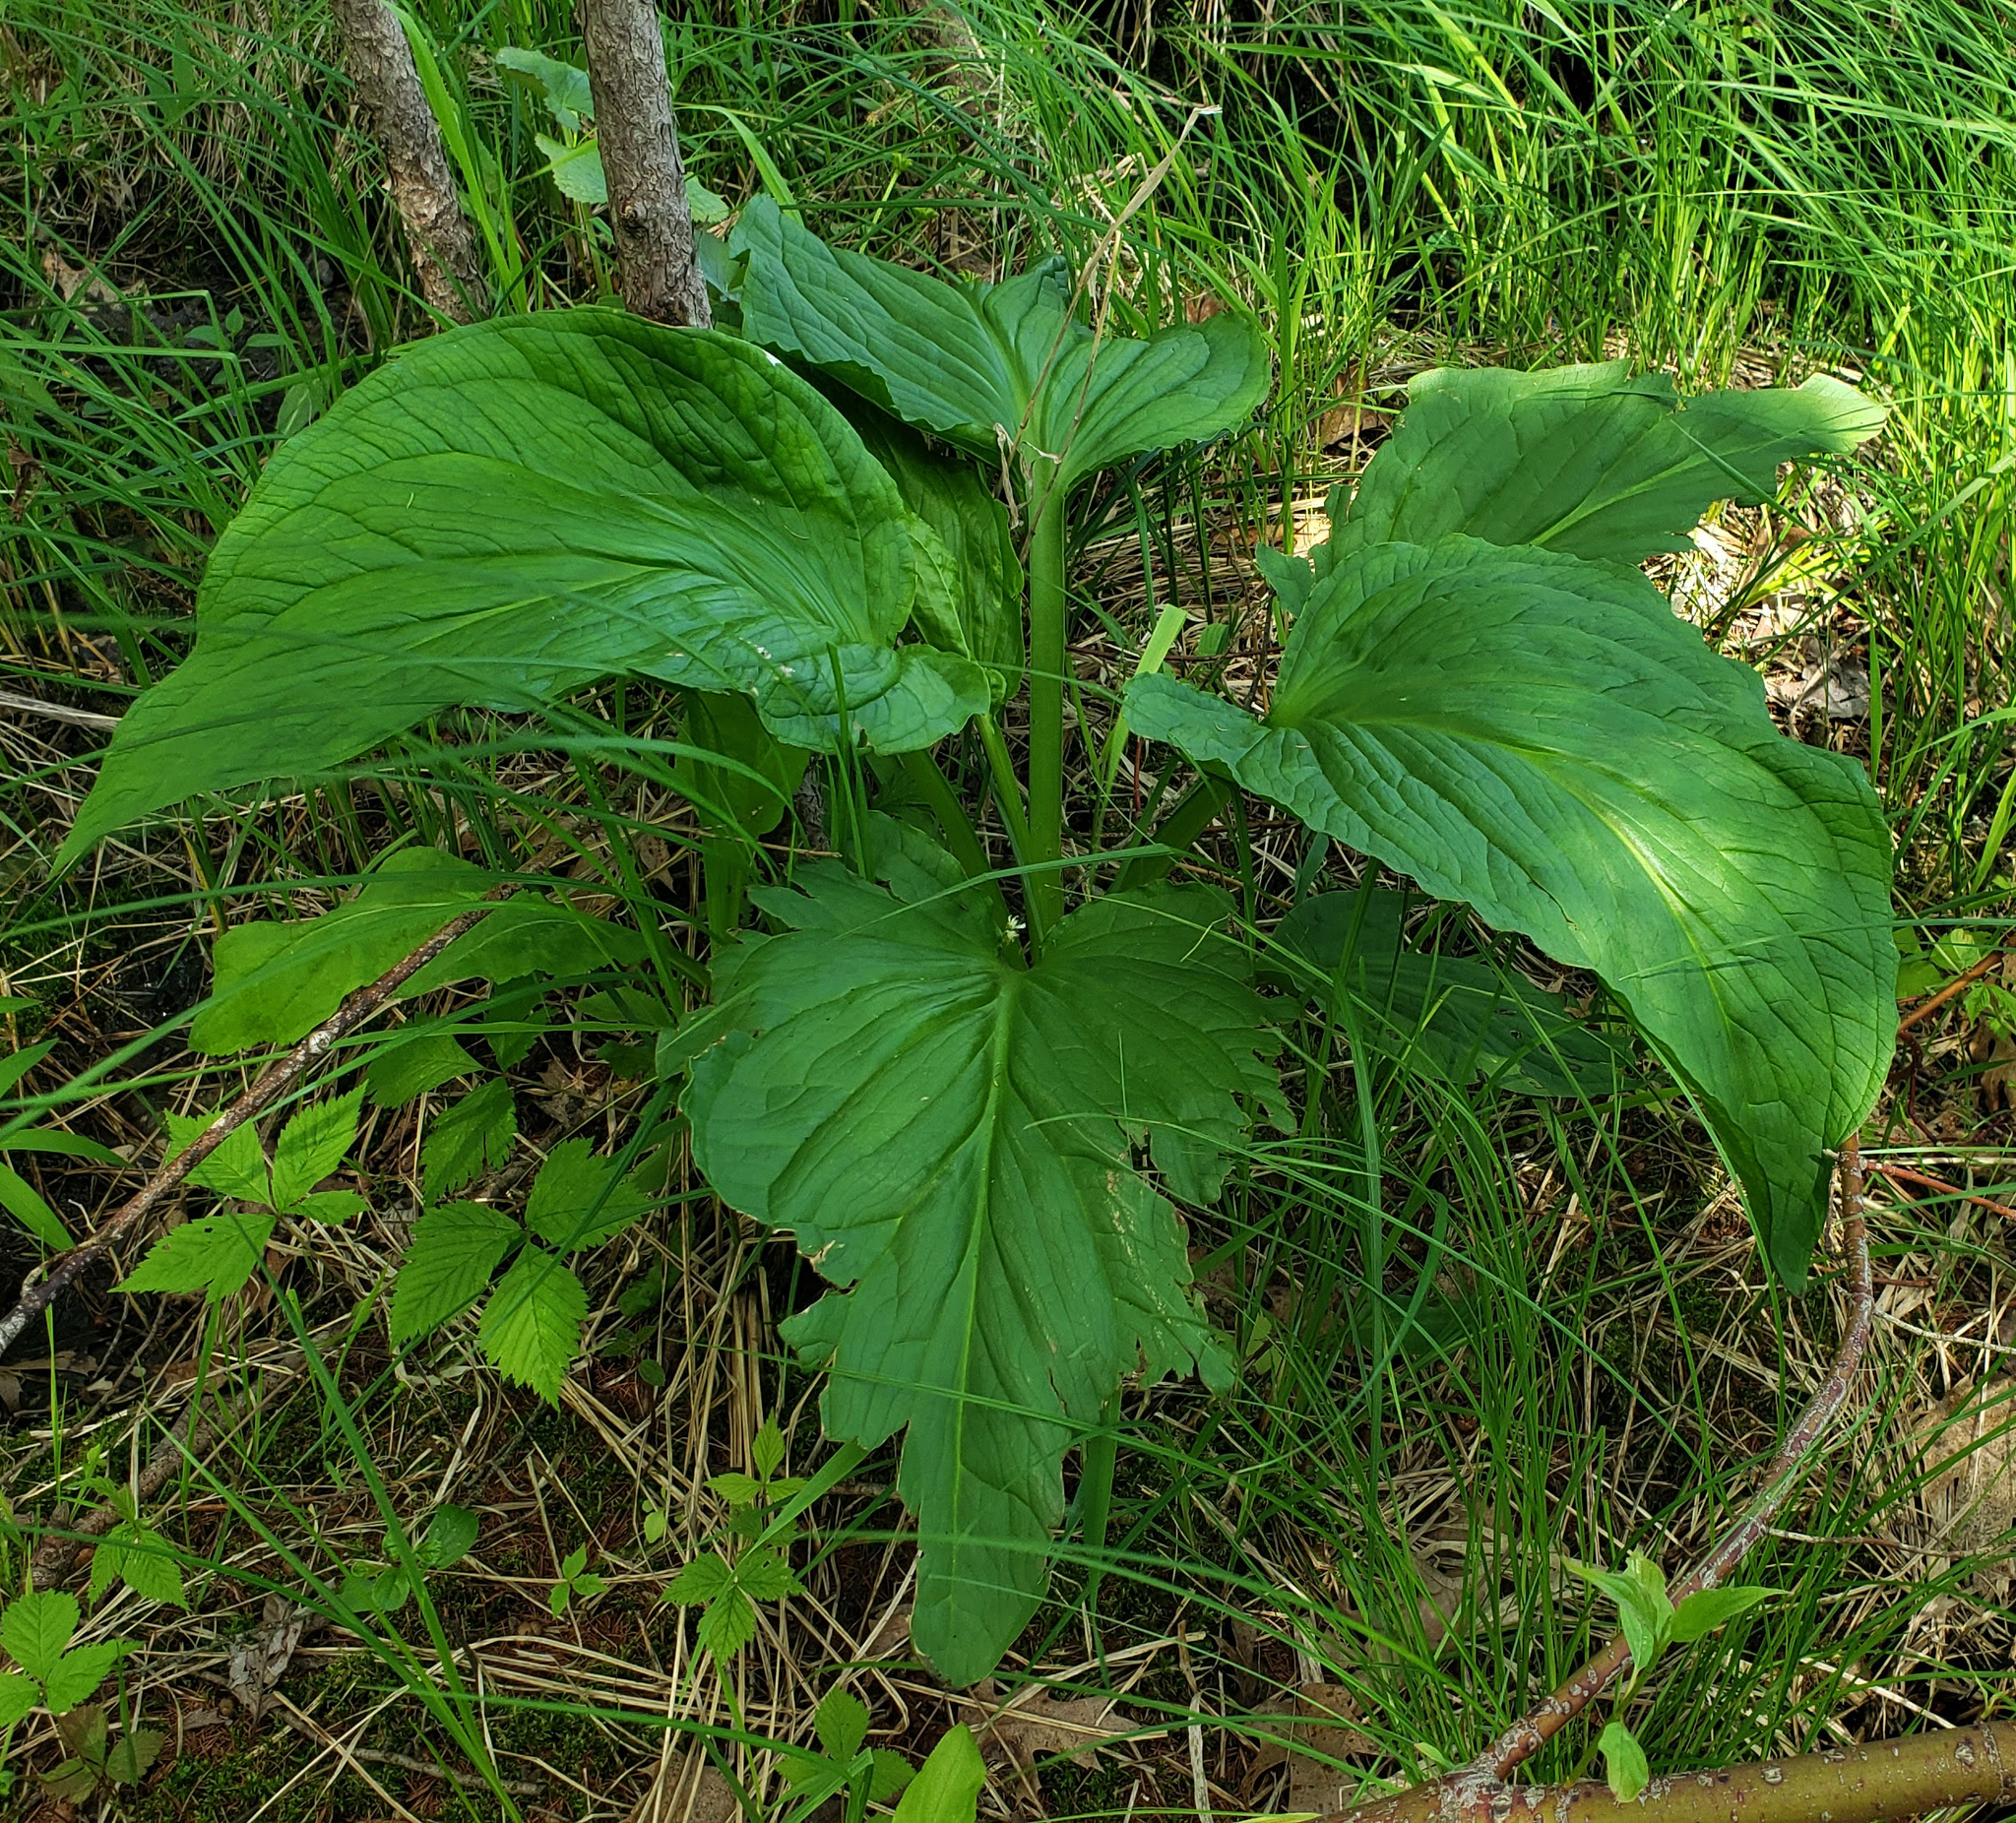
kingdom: Plantae
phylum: Tracheophyta
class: Liliopsida
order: Alismatales
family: Araceae
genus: Symplocarpus
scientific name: Symplocarpus foetidus
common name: Eastern skunk cabbage
